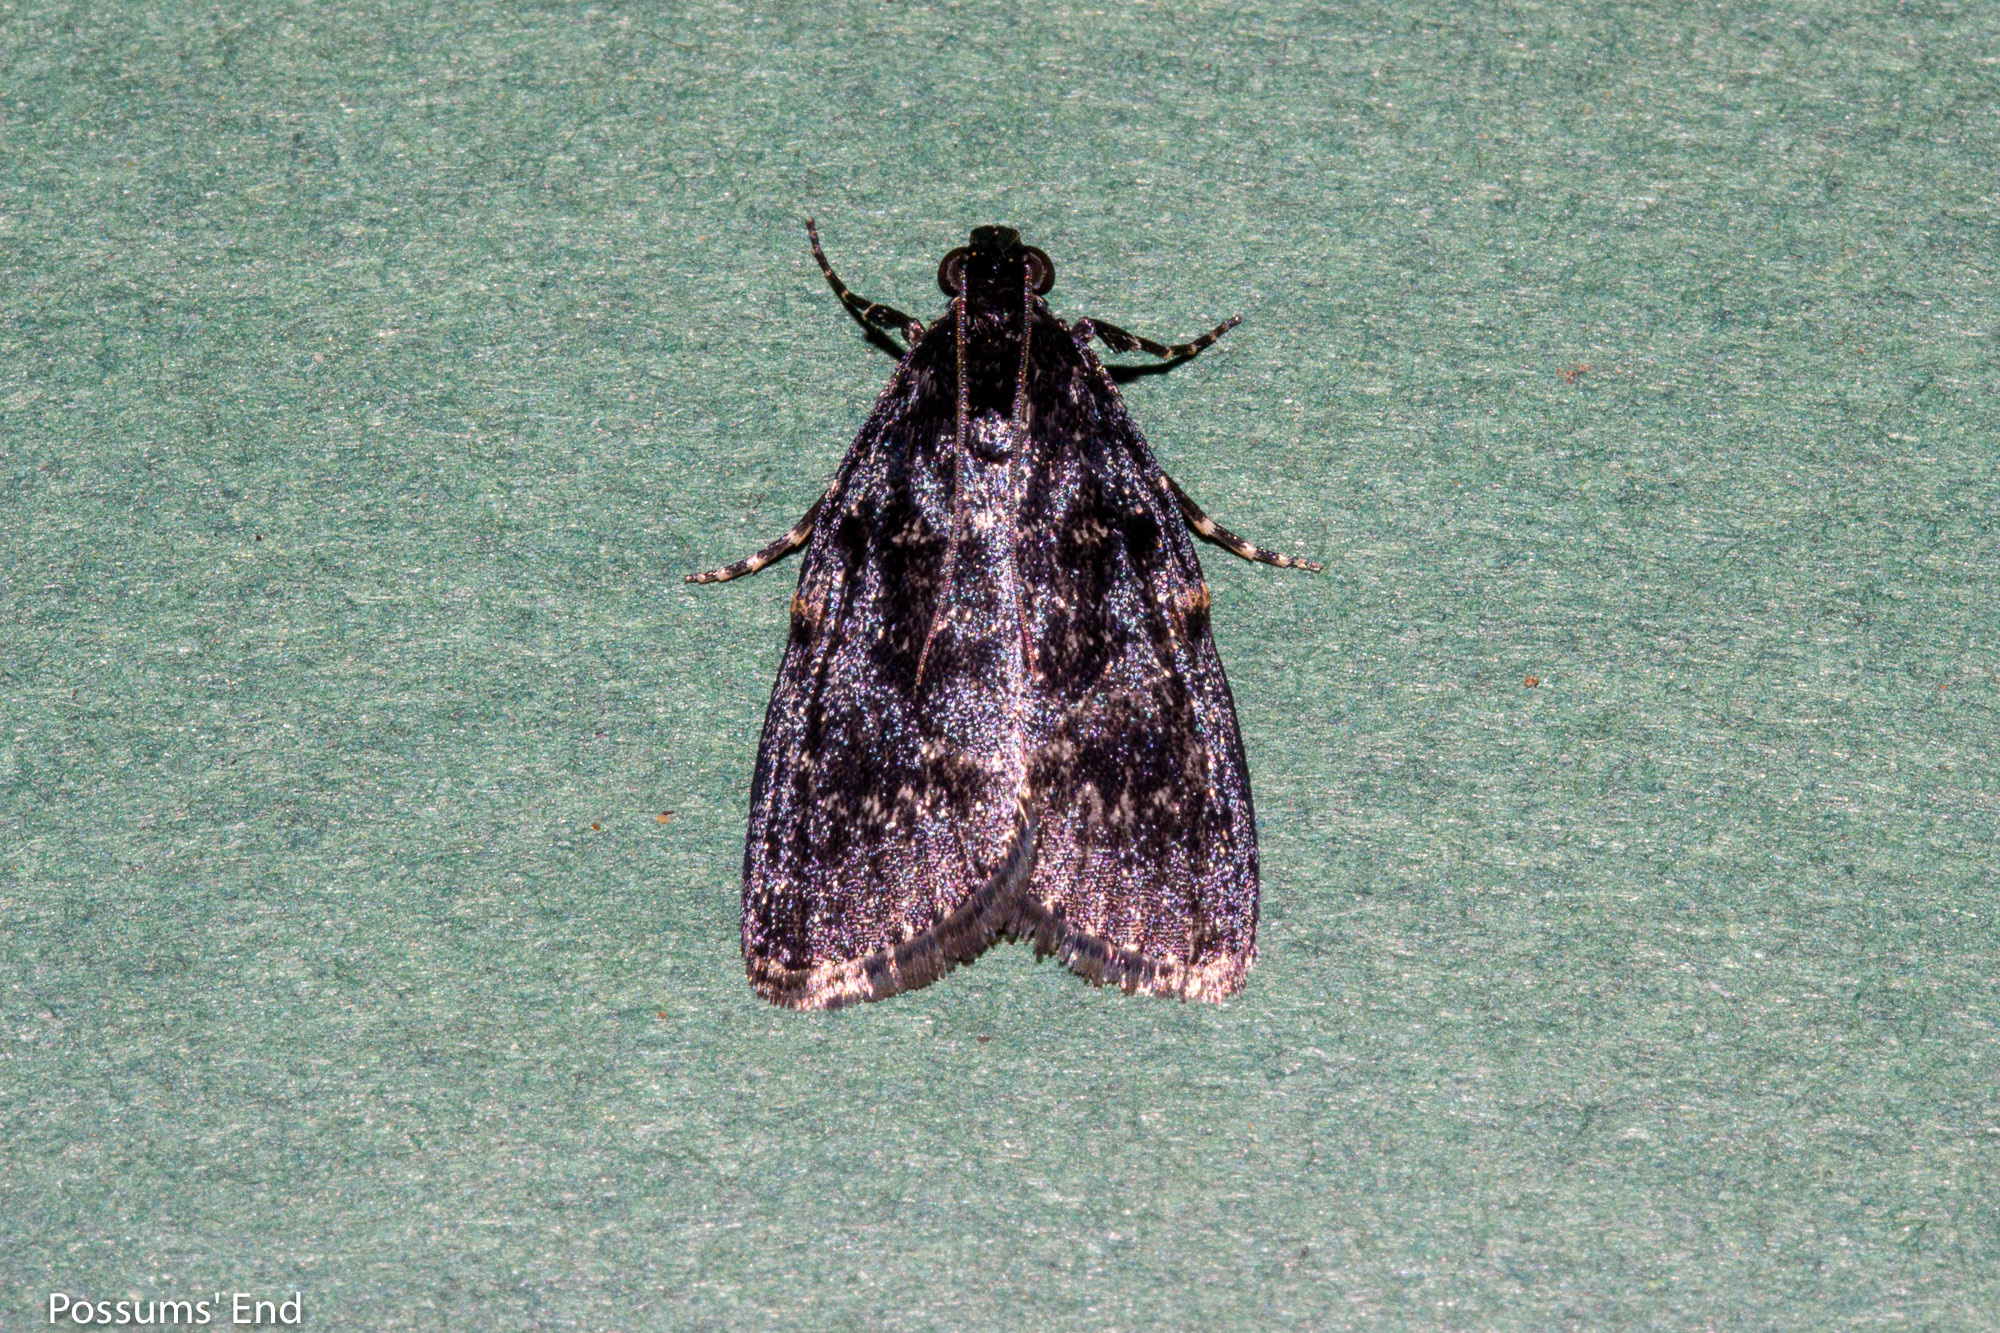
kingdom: Animalia
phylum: Arthropoda
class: Insecta
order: Lepidoptera
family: Pyralidae
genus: Stericta
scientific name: Stericta carbonalis
